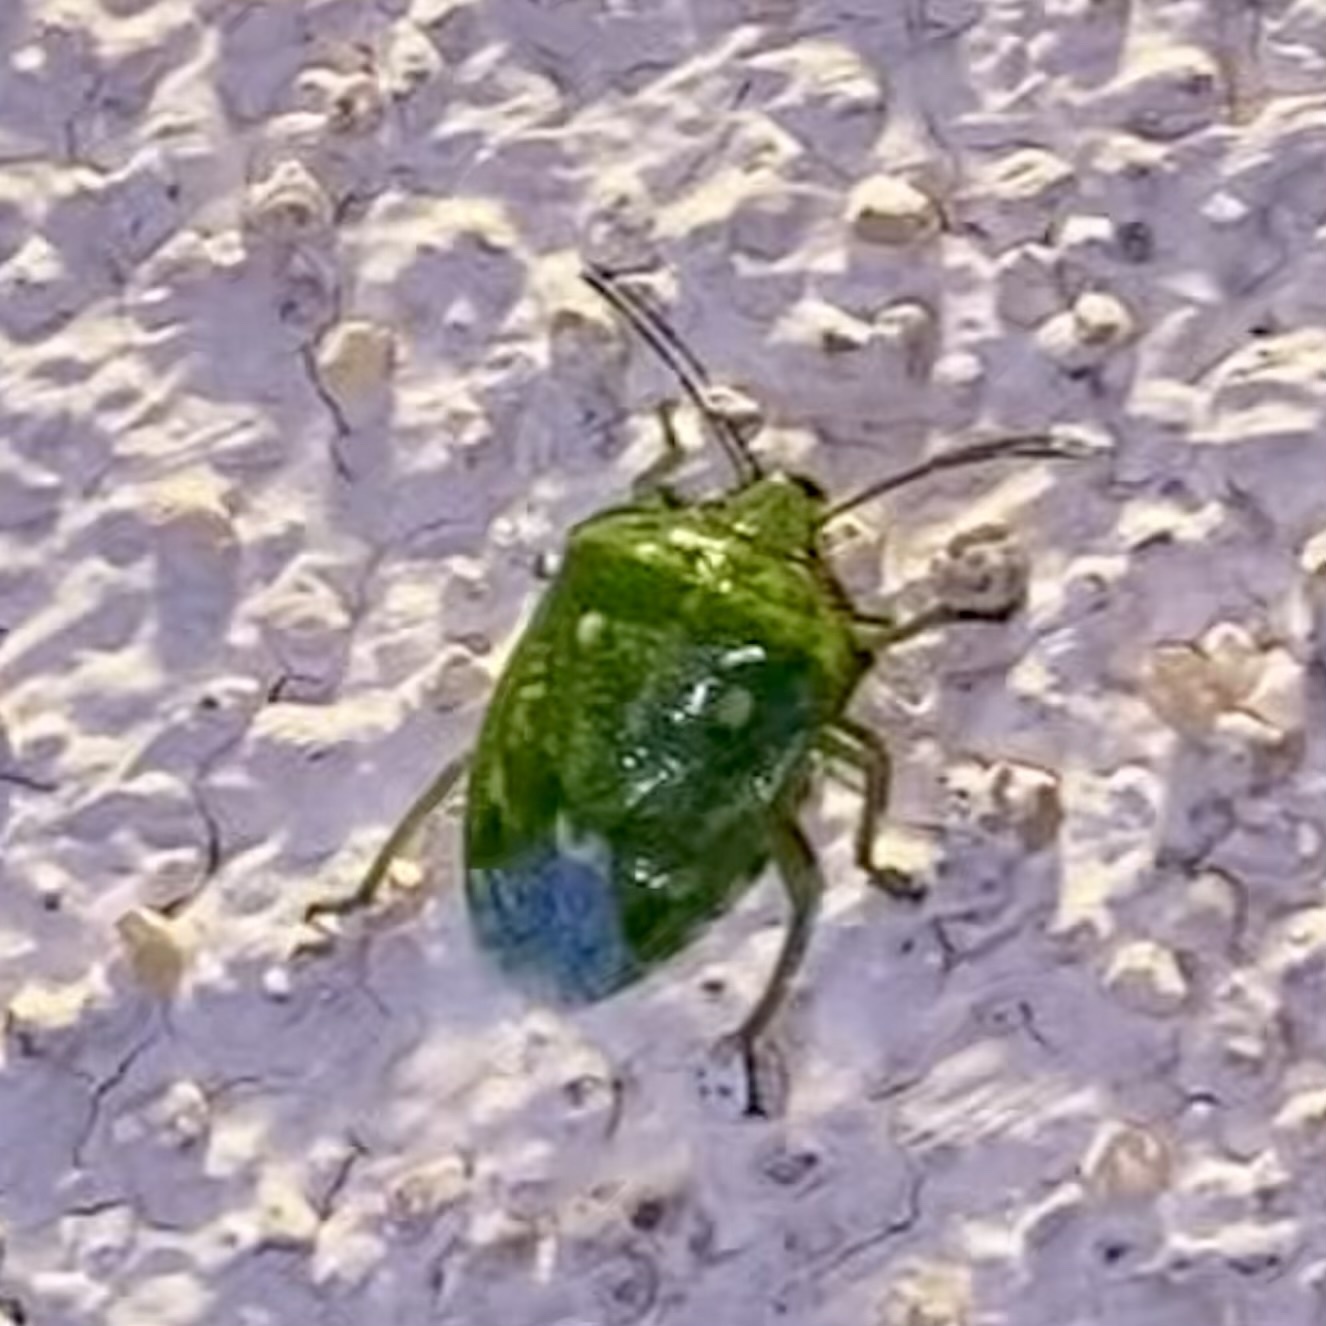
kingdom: Animalia
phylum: Arthropoda
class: Insecta
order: Hemiptera
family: Pentatomidae
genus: Banasa
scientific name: Banasa euchlora
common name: Cedar berry bug
